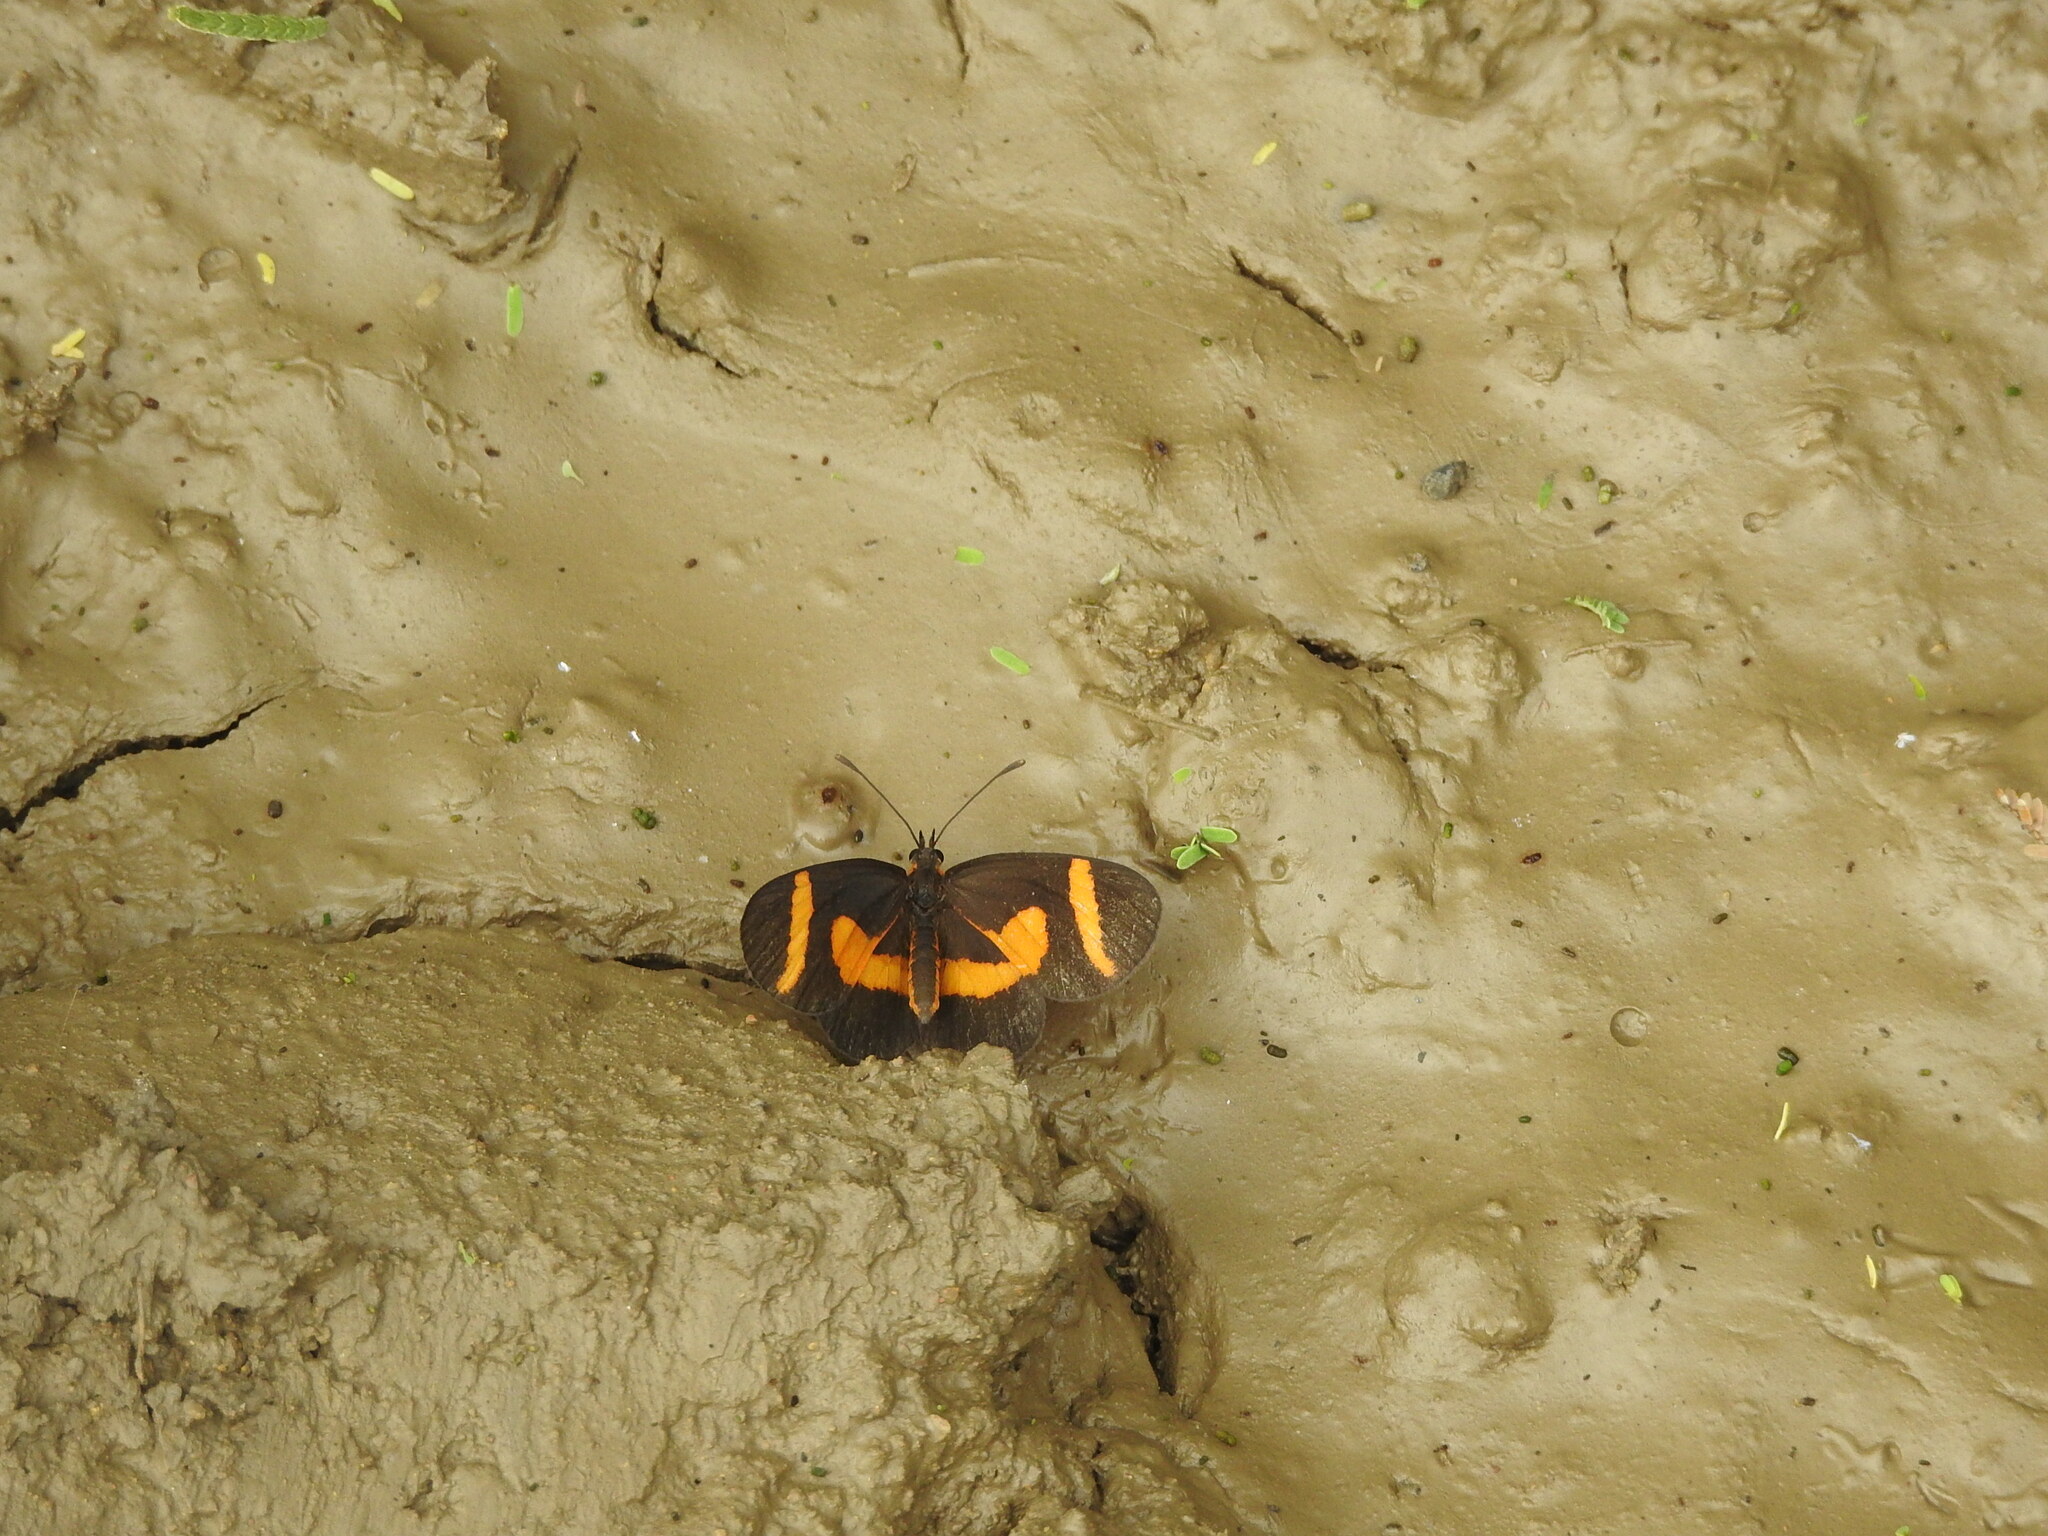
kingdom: Animalia
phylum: Arthropoda
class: Insecta
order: Lepidoptera
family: Nymphalidae
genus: Microtia
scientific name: Microtia elva
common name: Elf
